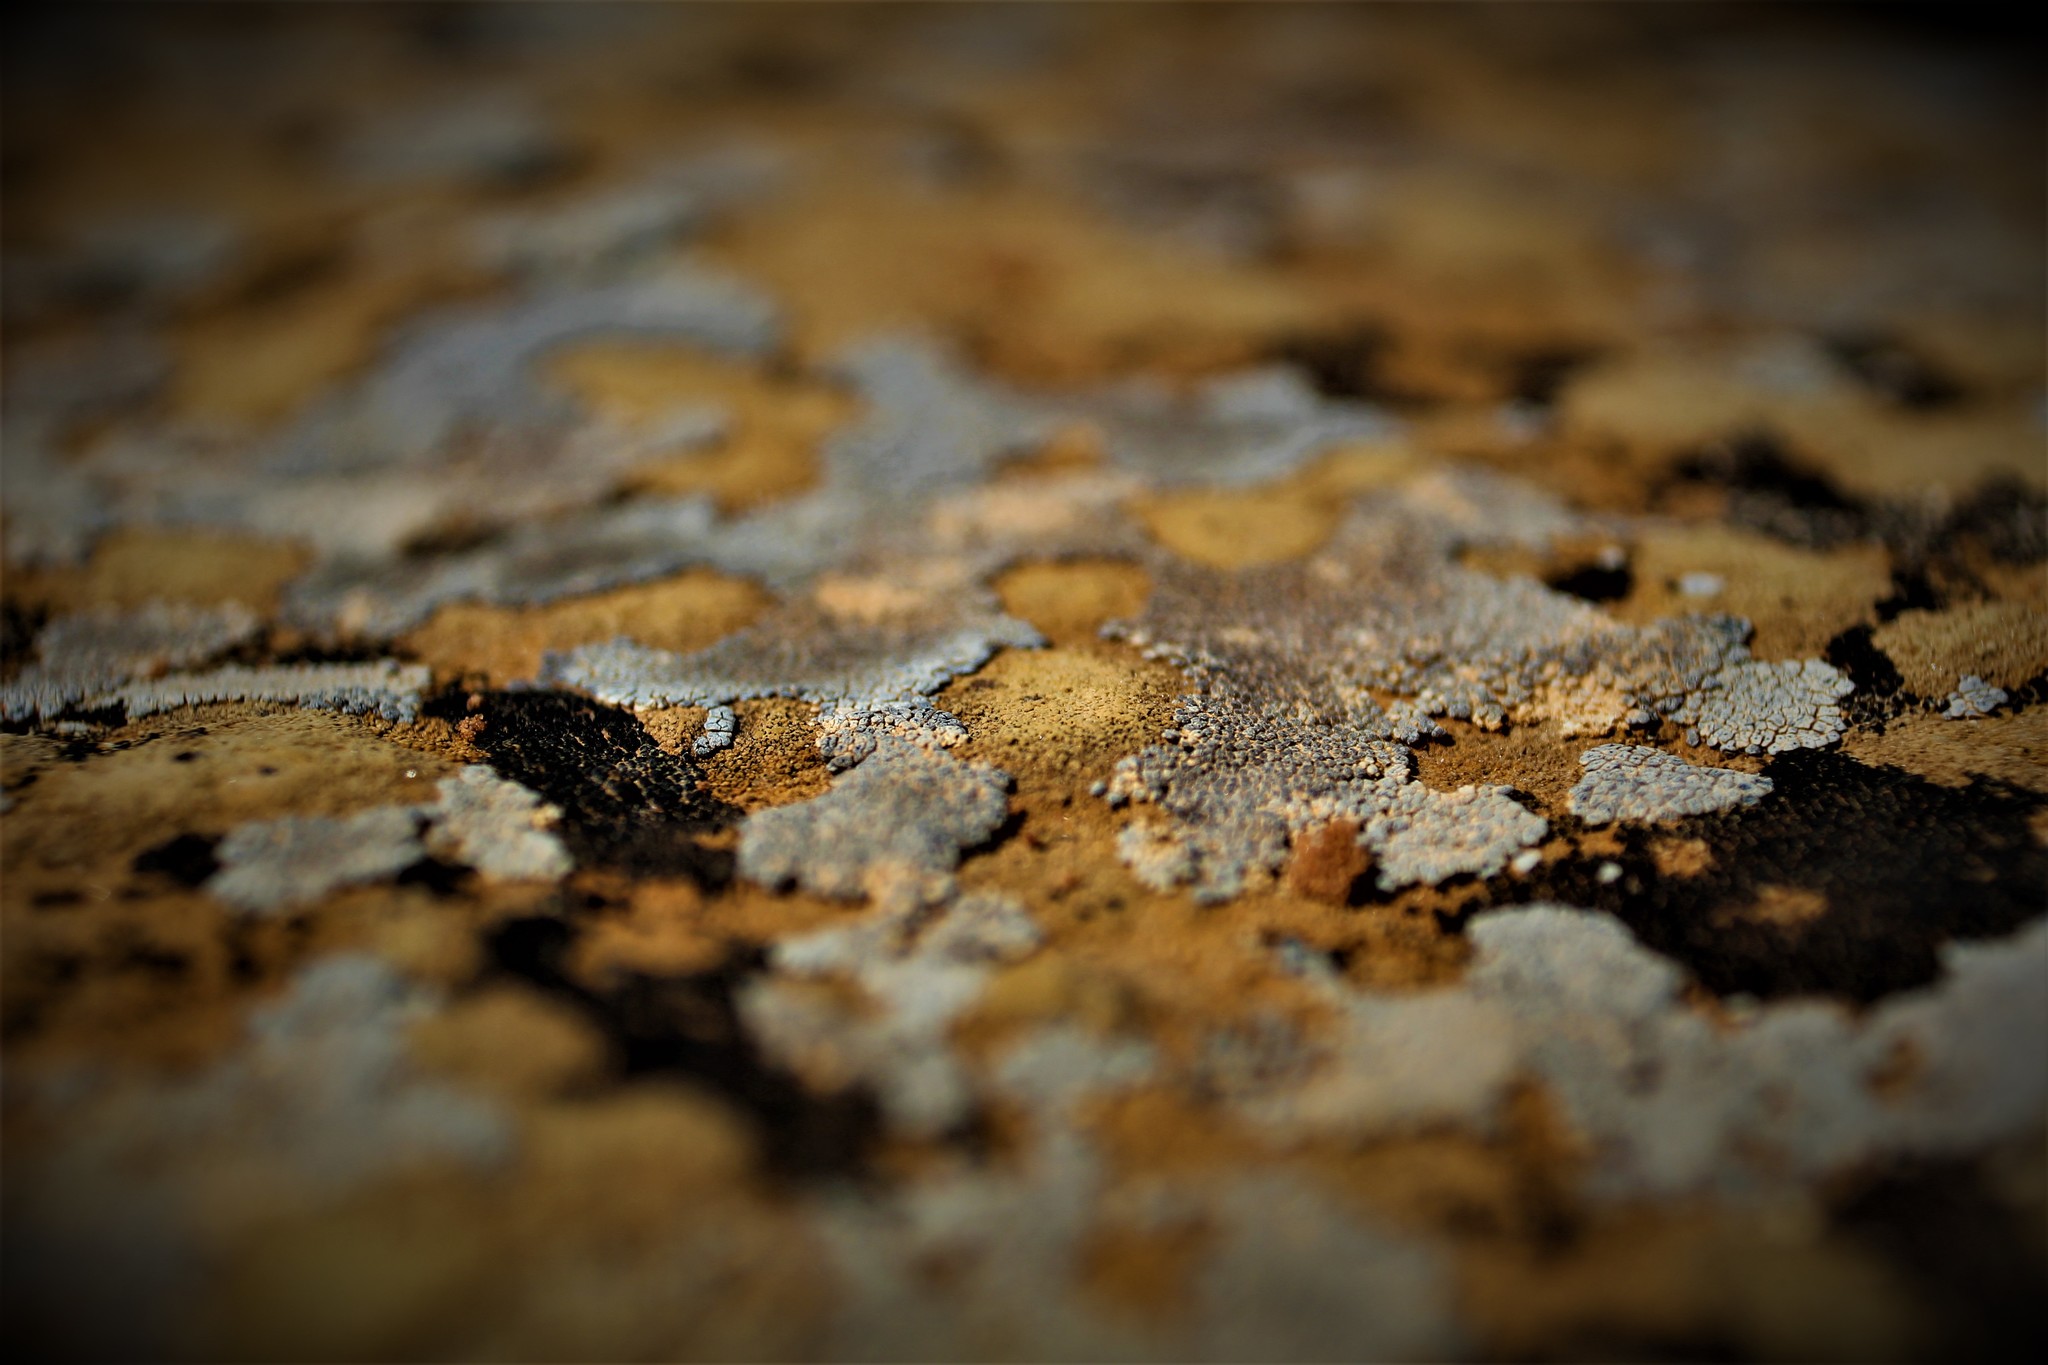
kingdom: Fungi
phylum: Ascomycota
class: Lecanoromycetes
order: Acarosporales
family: Acarosporaceae
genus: Acarospora
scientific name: Acarospora strigata
